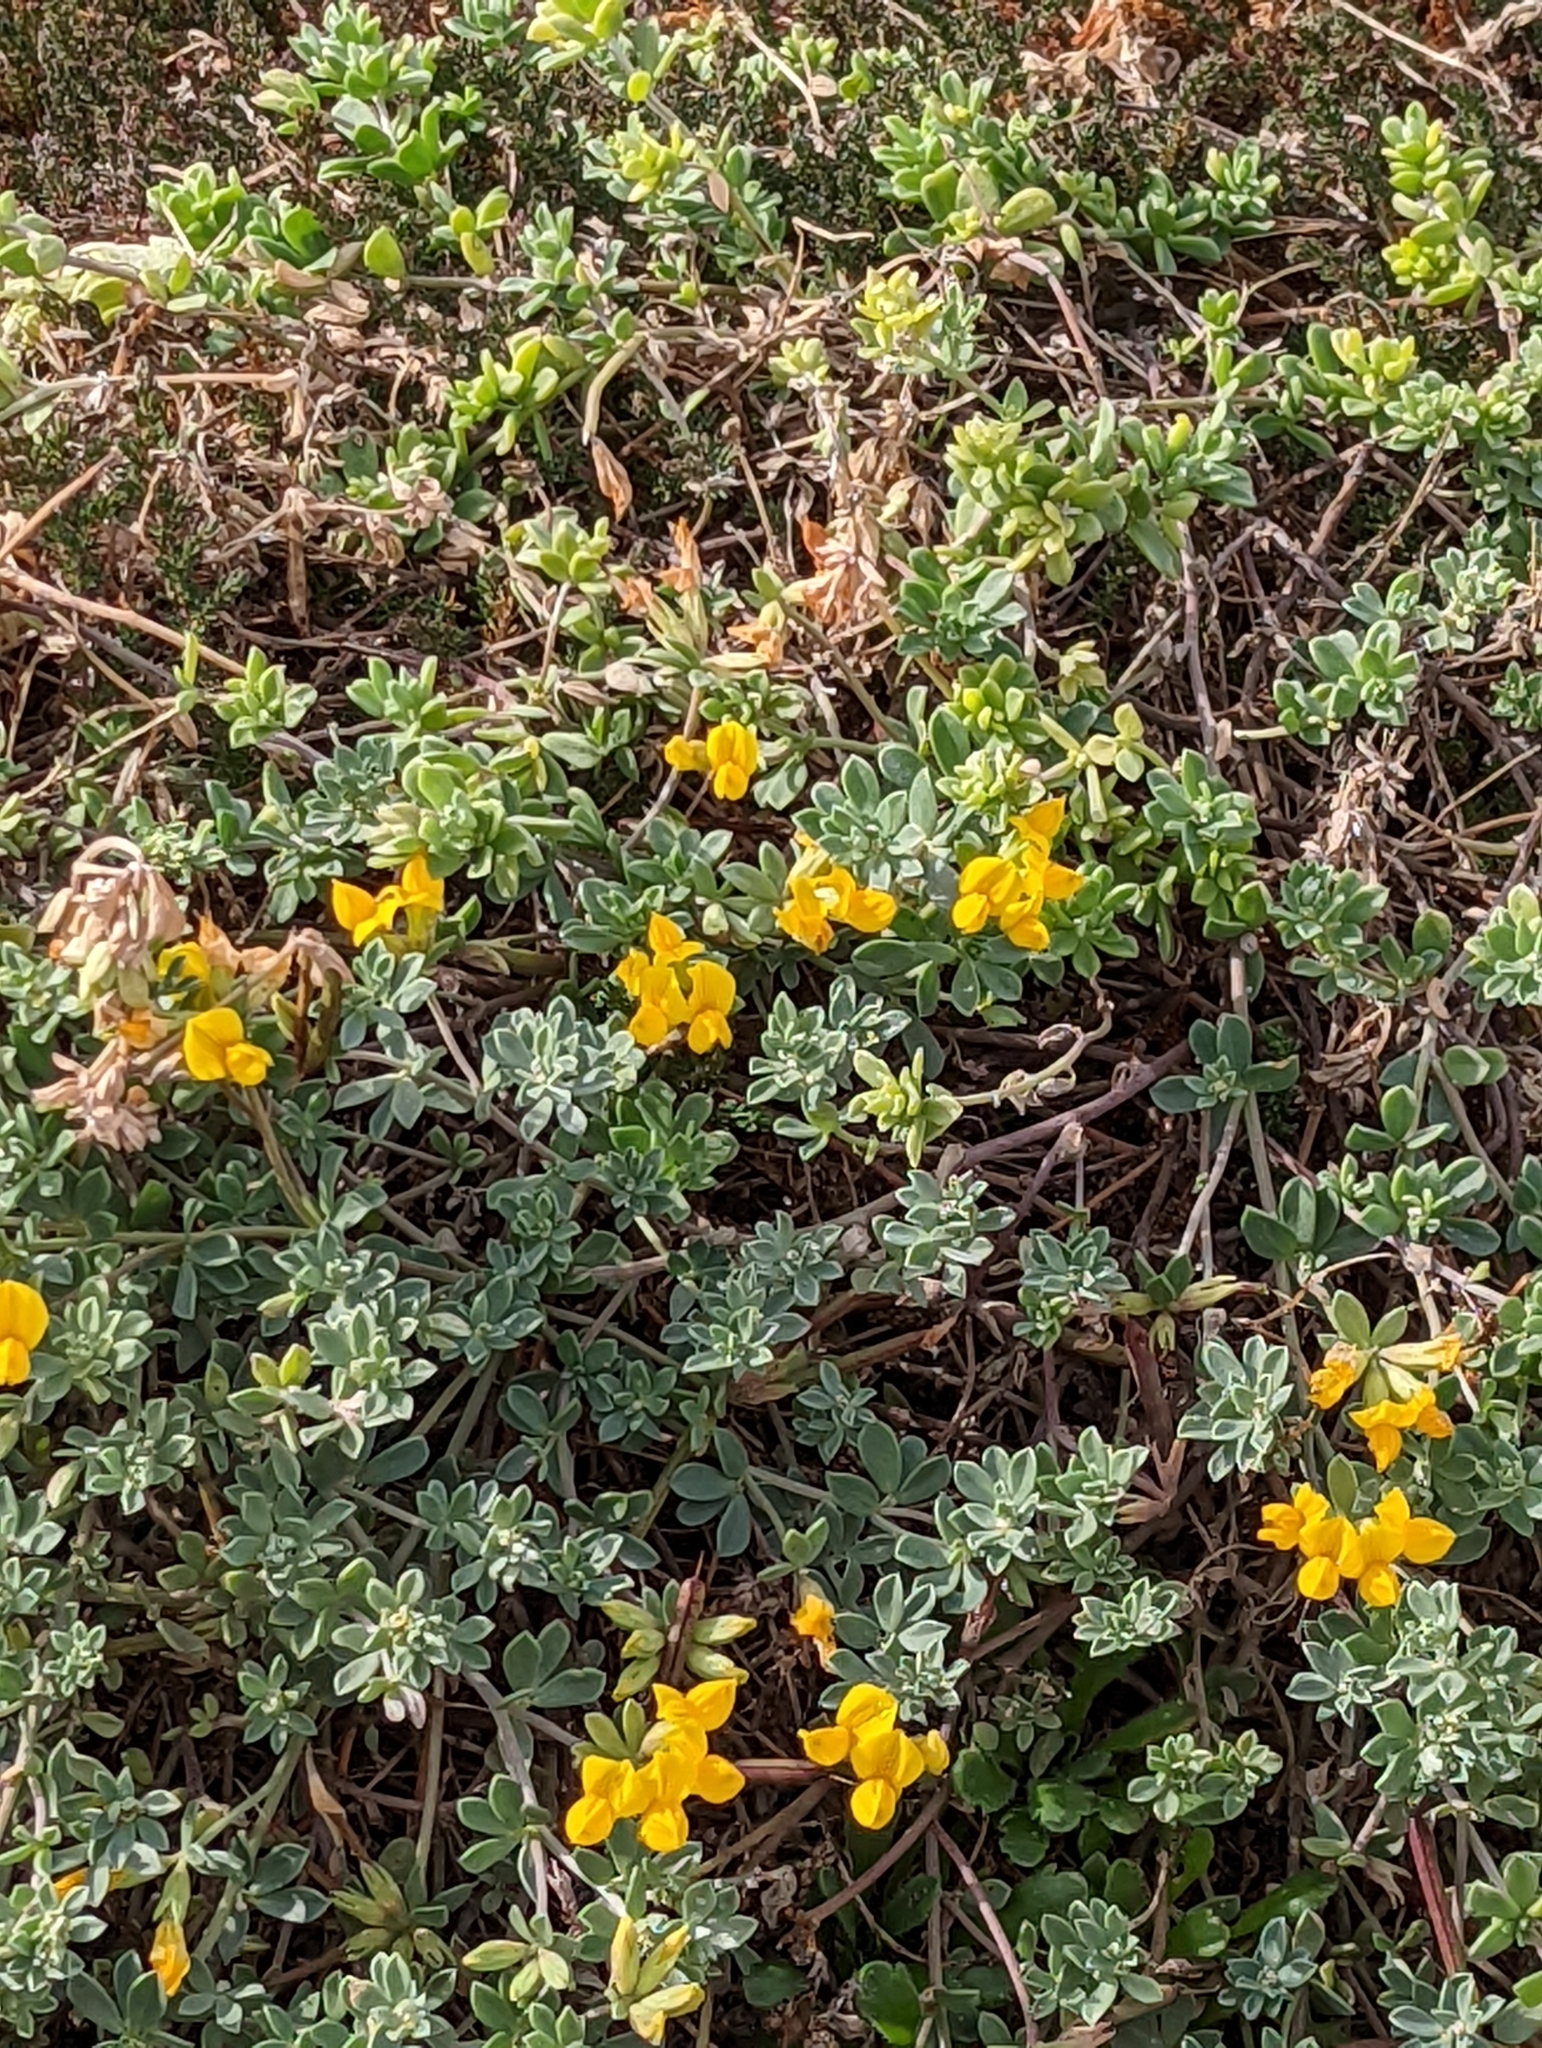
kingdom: Plantae
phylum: Tracheophyta
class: Magnoliopsida
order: Fabales
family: Fabaceae
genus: Lotus
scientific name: Lotus creticus
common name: Cretan bird's-foot trefoil
